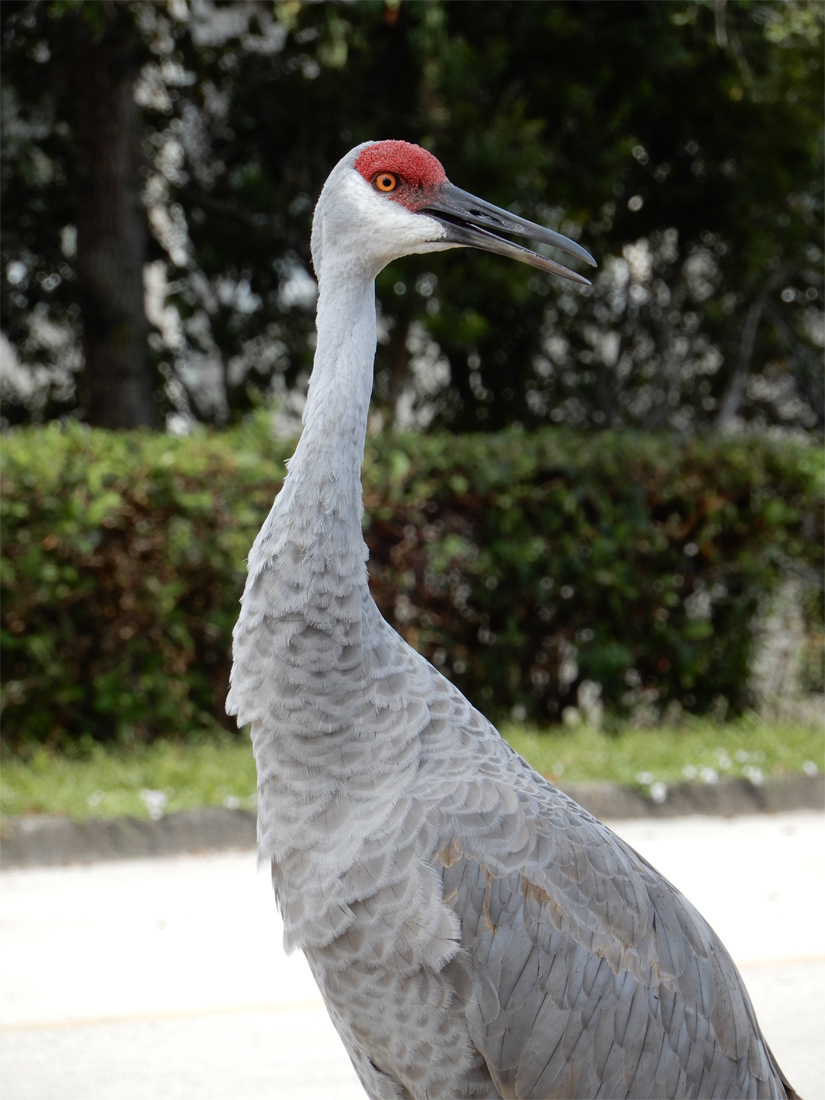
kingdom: Animalia
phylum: Chordata
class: Aves
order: Gruiformes
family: Gruidae
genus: Grus
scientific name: Grus canadensis
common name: Sandhill crane
